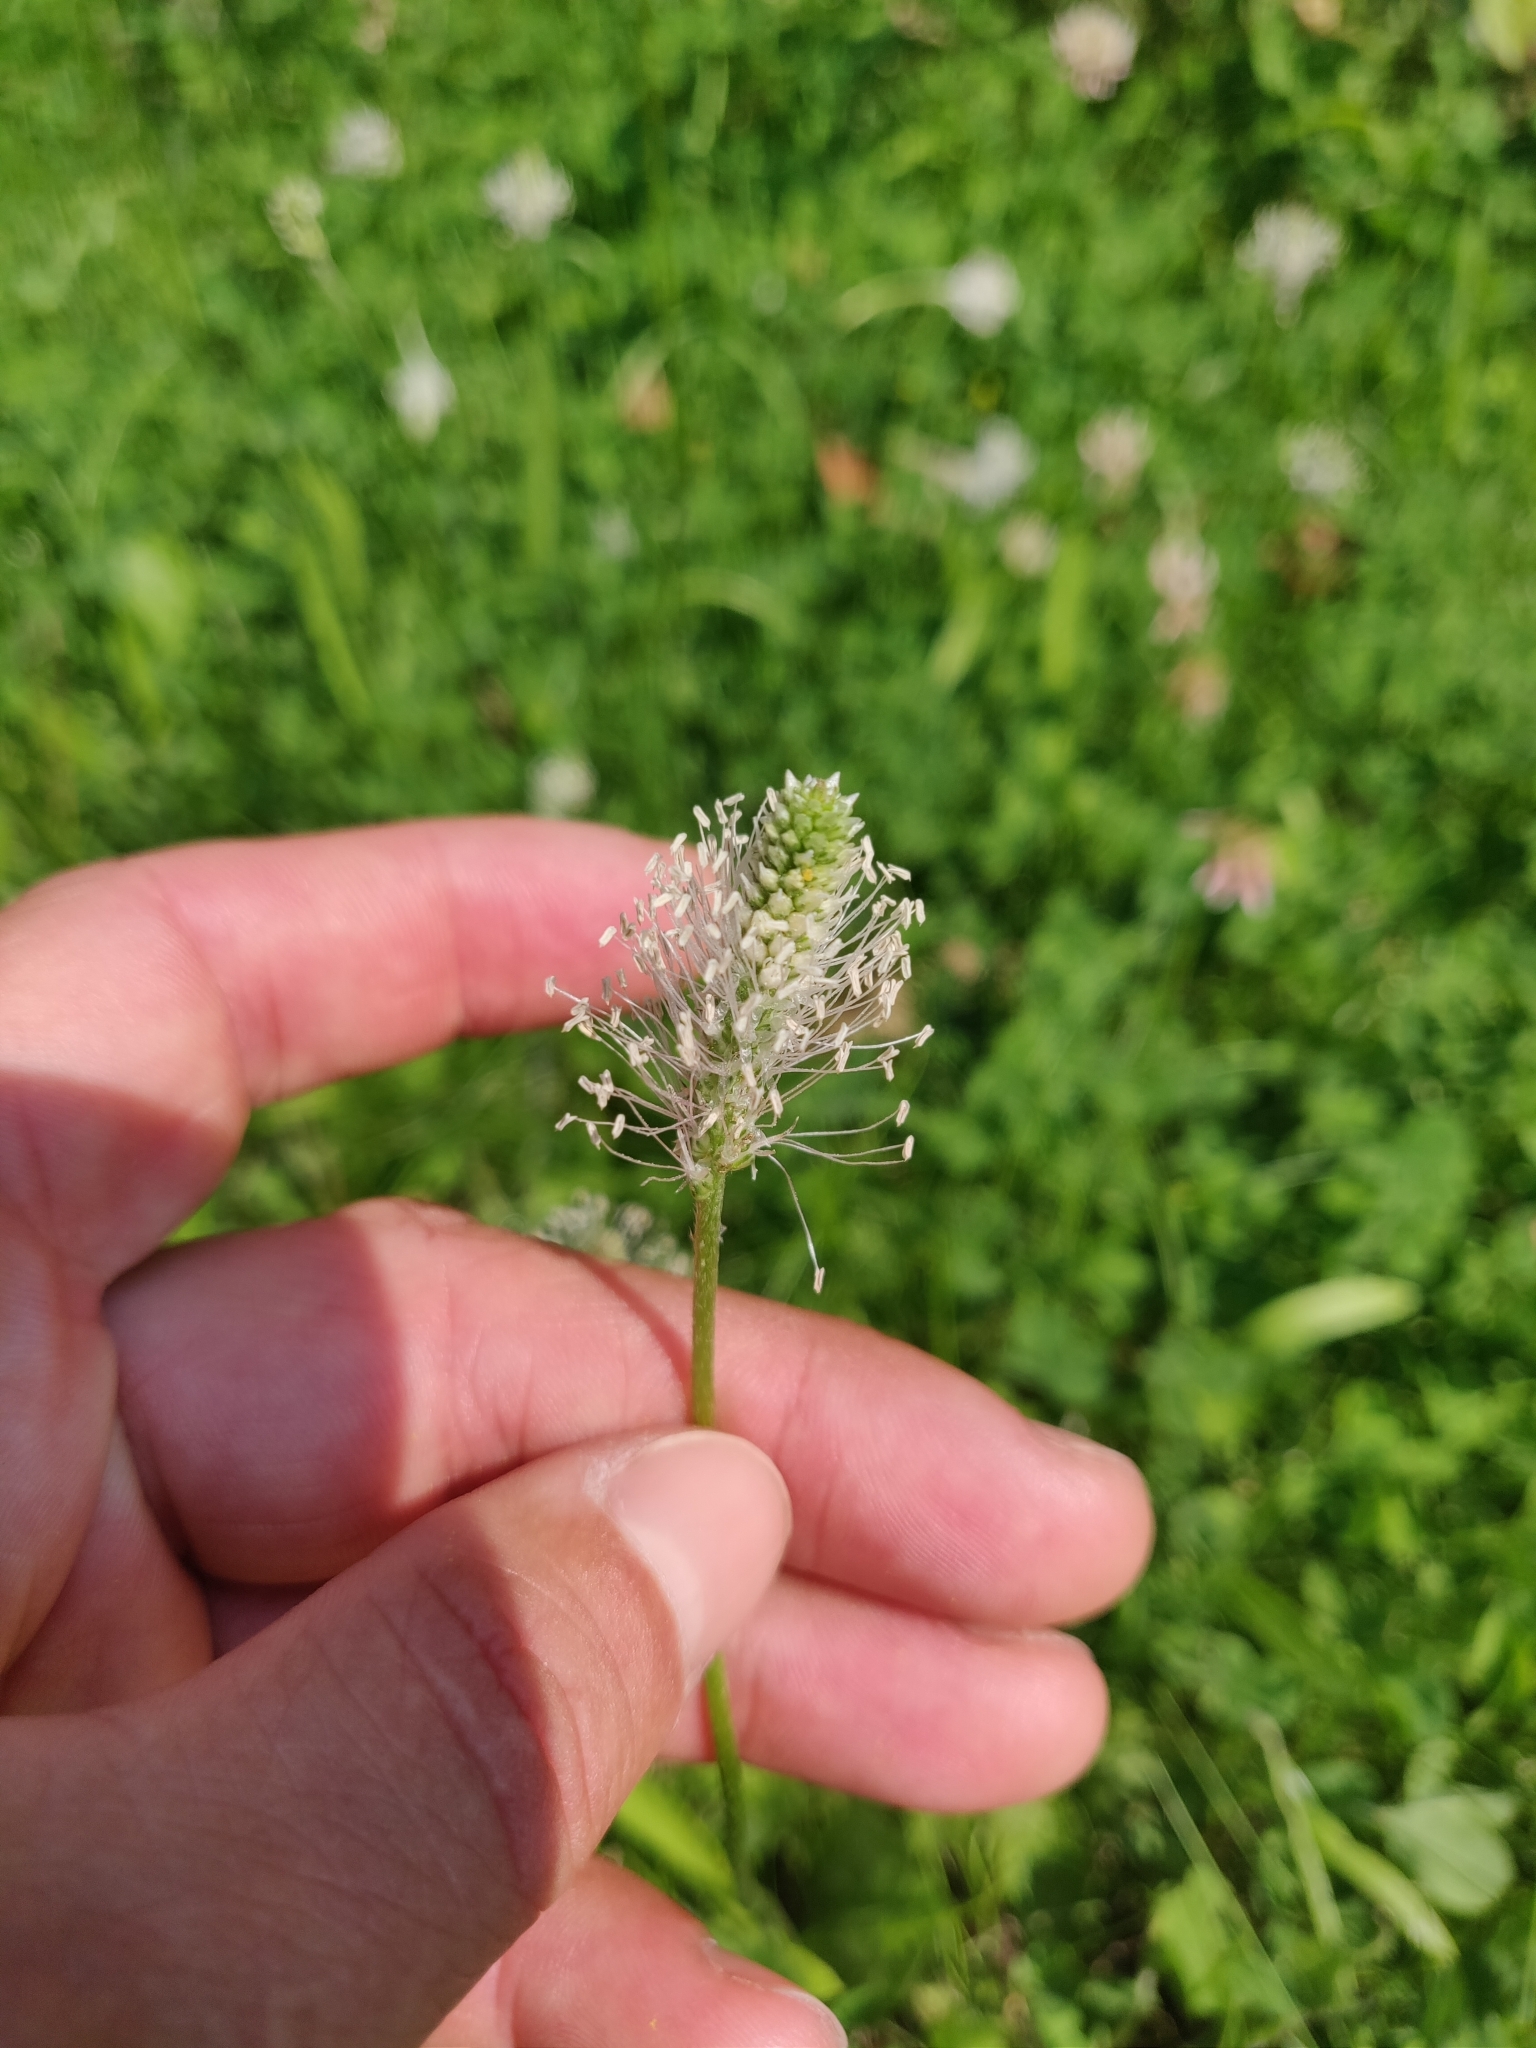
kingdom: Plantae
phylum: Tracheophyta
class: Magnoliopsida
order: Lamiales
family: Plantaginaceae
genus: Plantago
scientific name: Plantago media
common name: Hoary plantain
